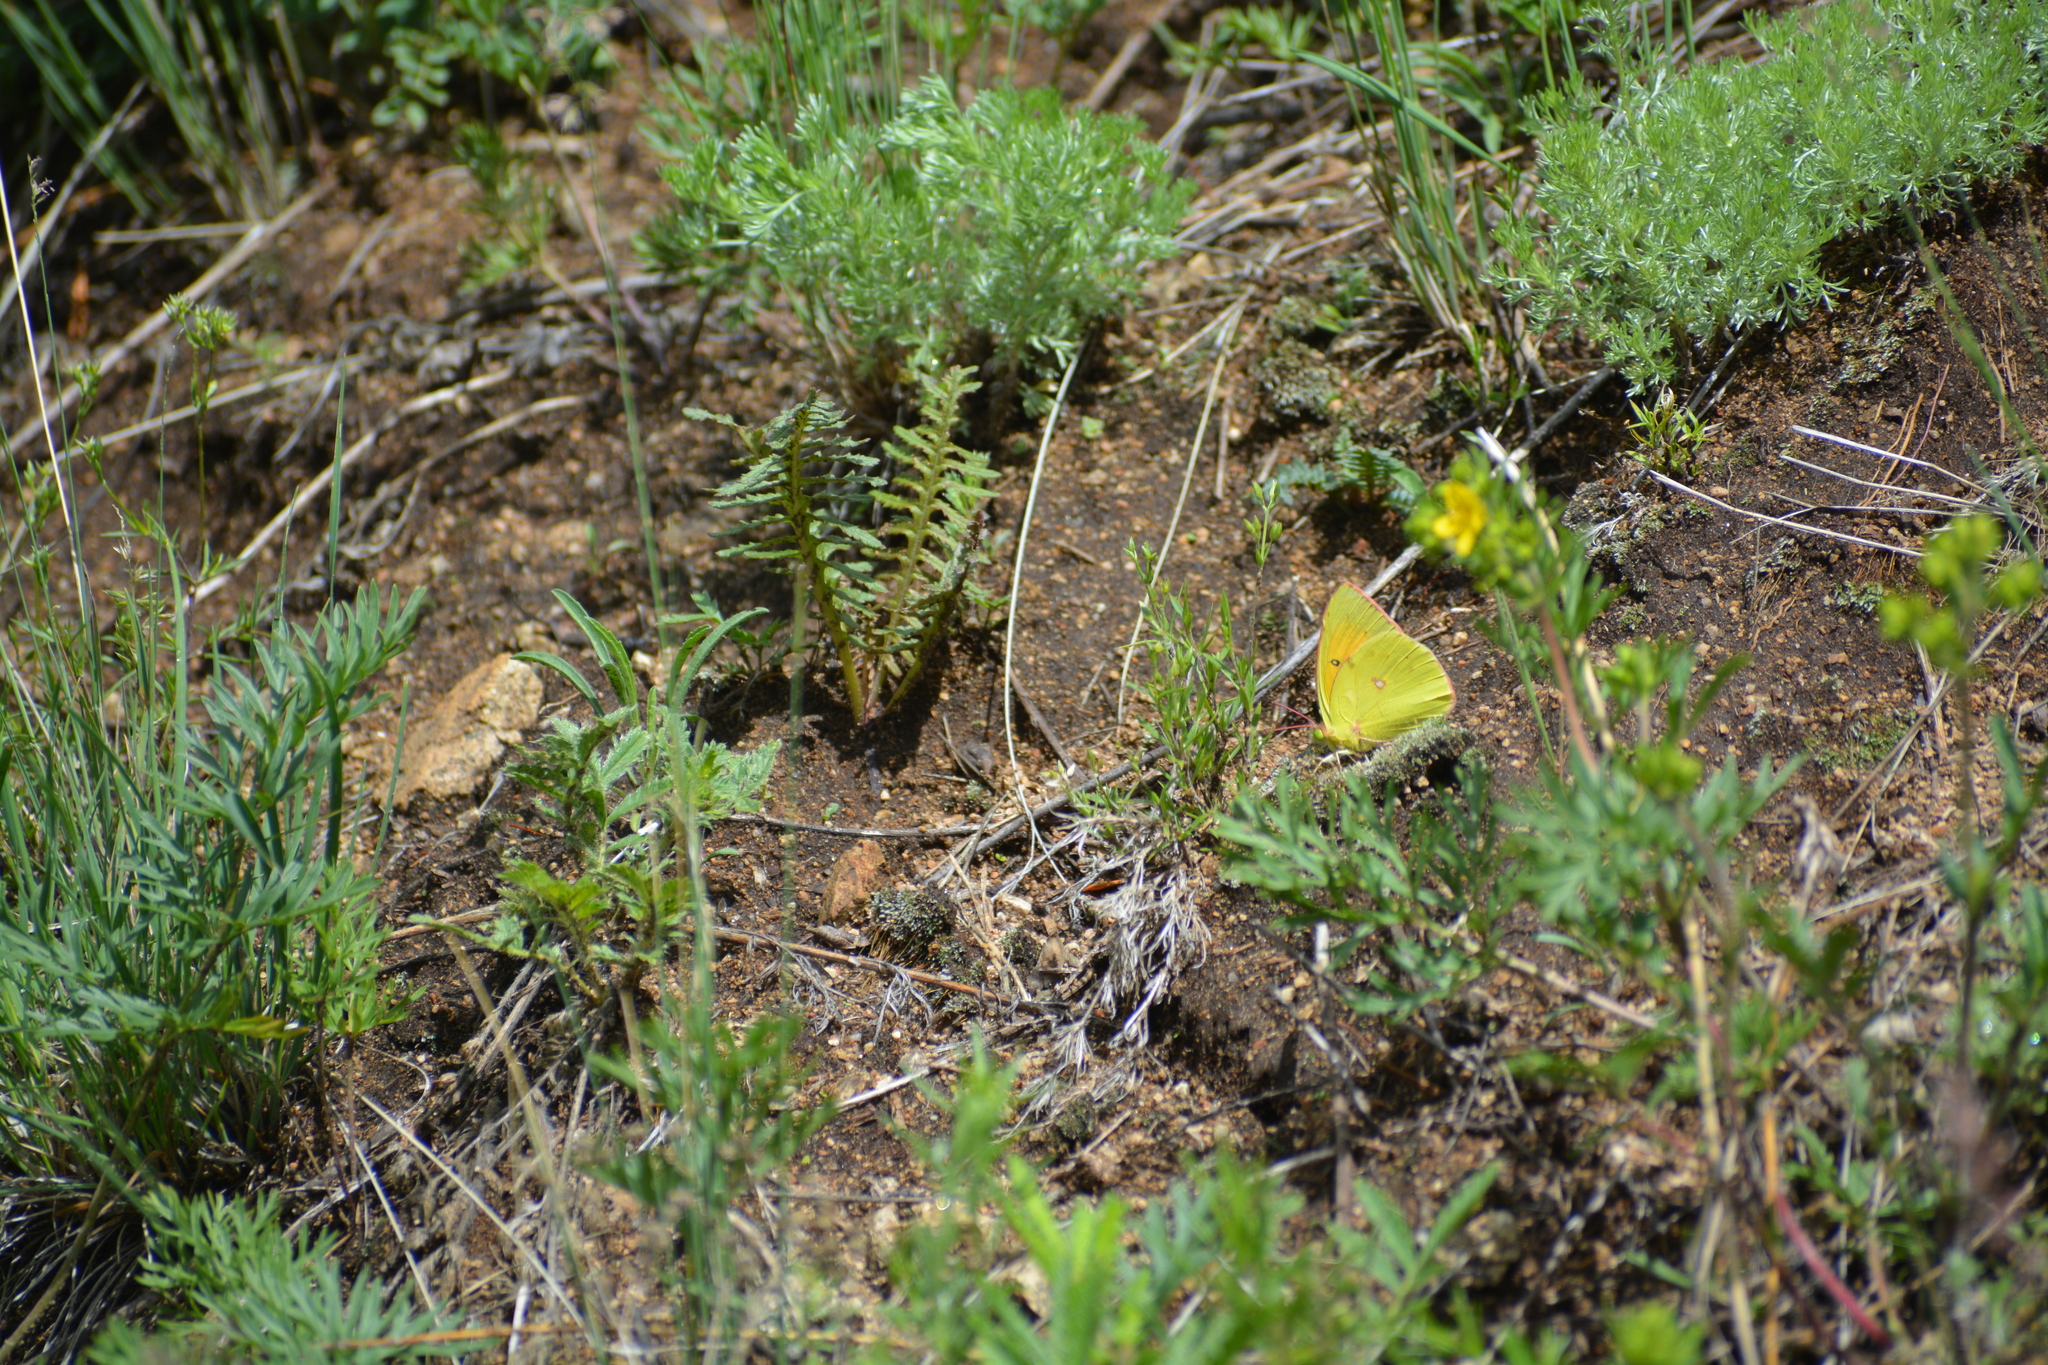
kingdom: Animalia
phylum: Arthropoda
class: Insecta
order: Lepidoptera
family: Pieridae
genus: Colias
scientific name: Colias heos
